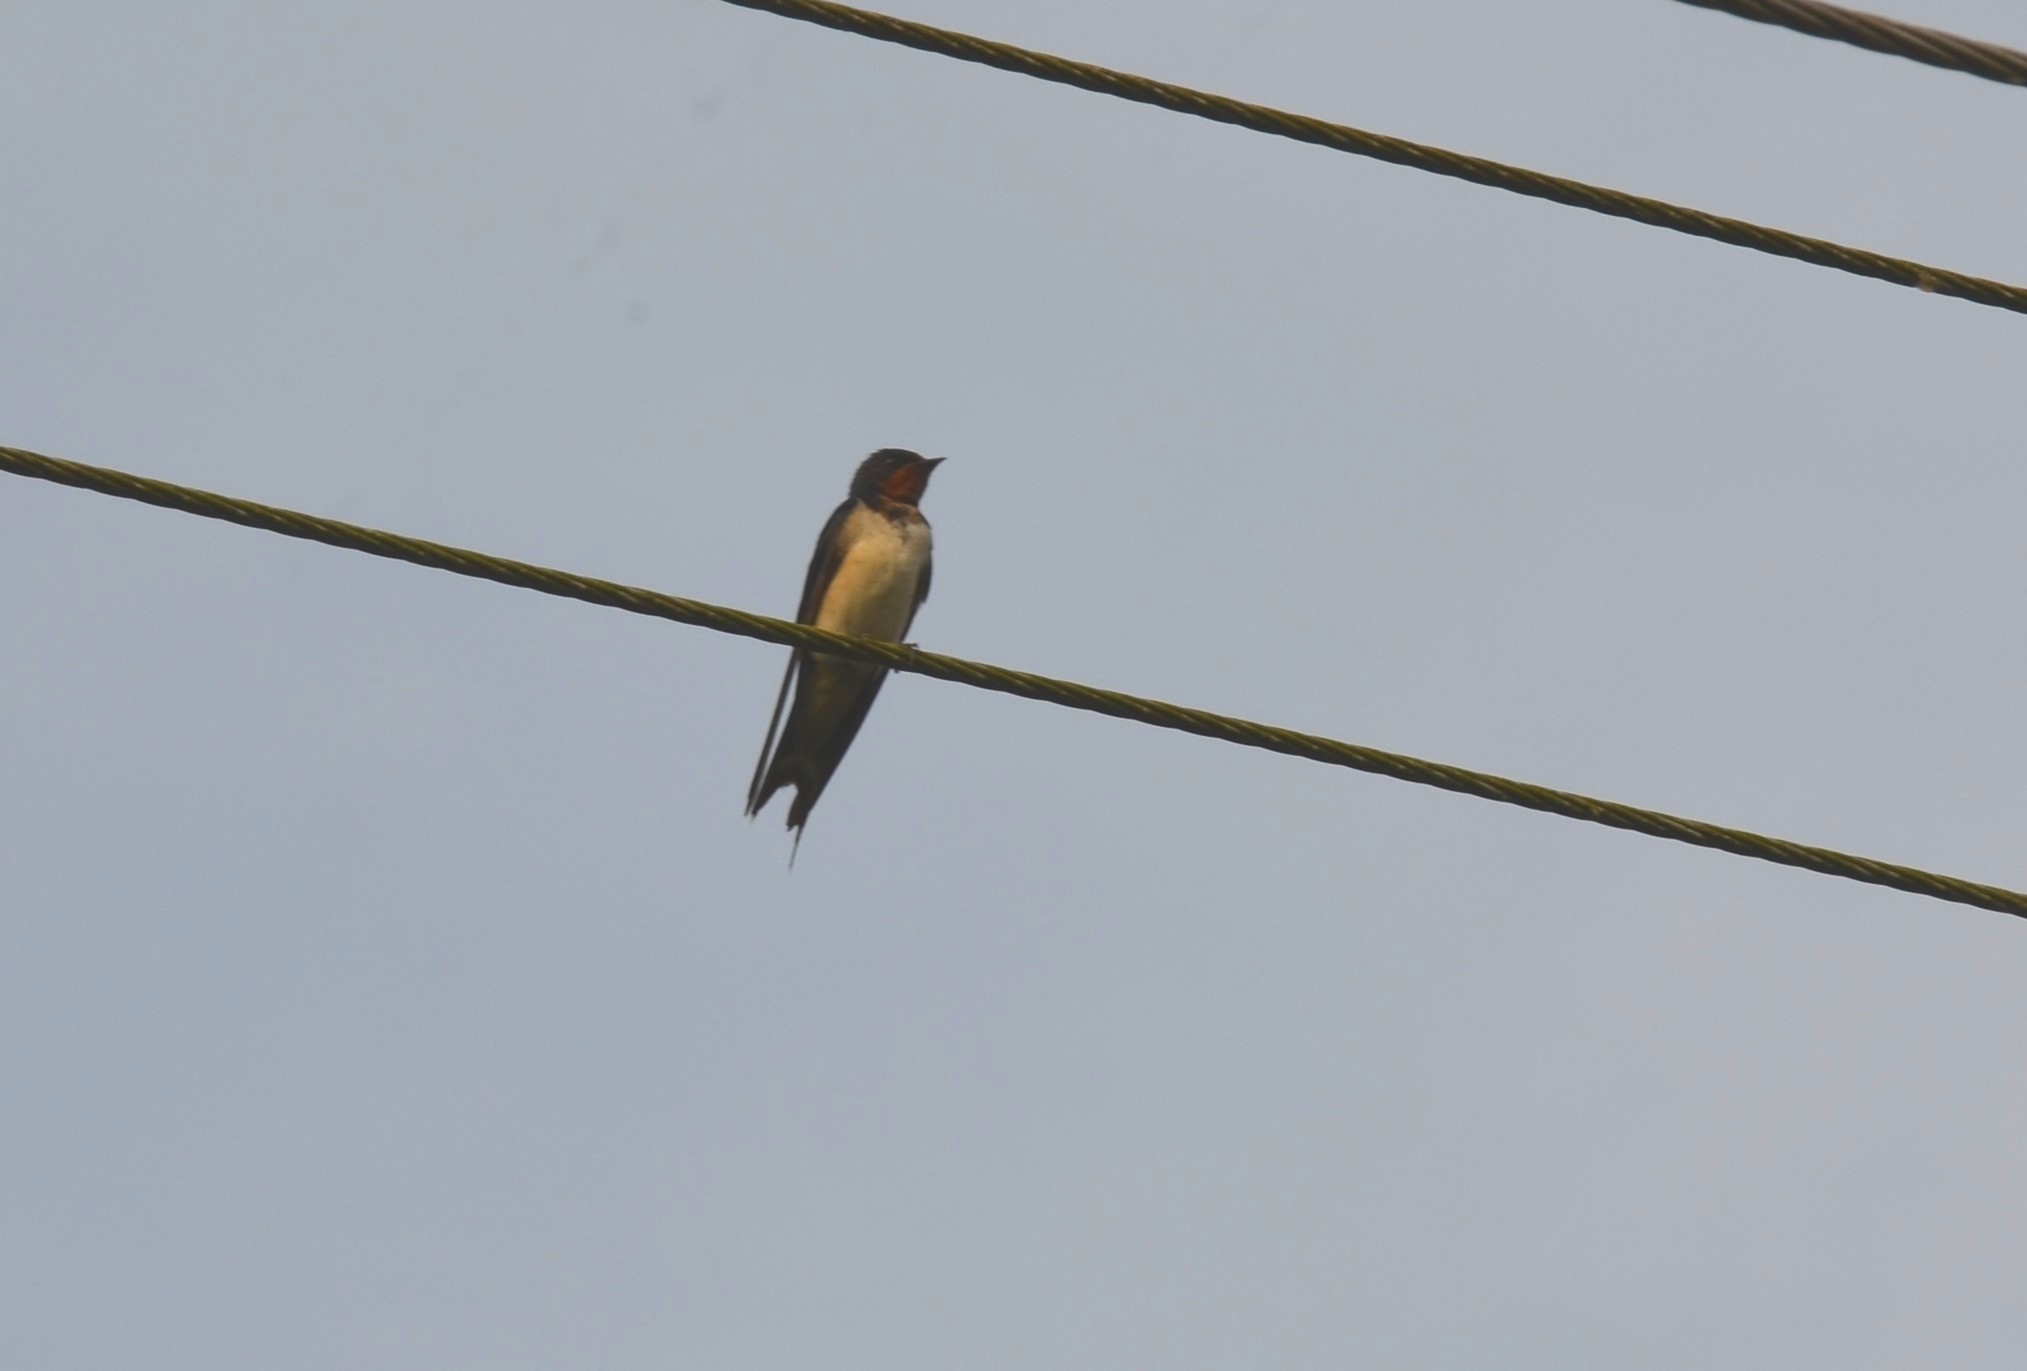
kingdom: Animalia
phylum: Chordata
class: Aves
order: Passeriformes
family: Hirundinidae
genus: Hirundo
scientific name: Hirundo rustica
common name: Barn swallow
